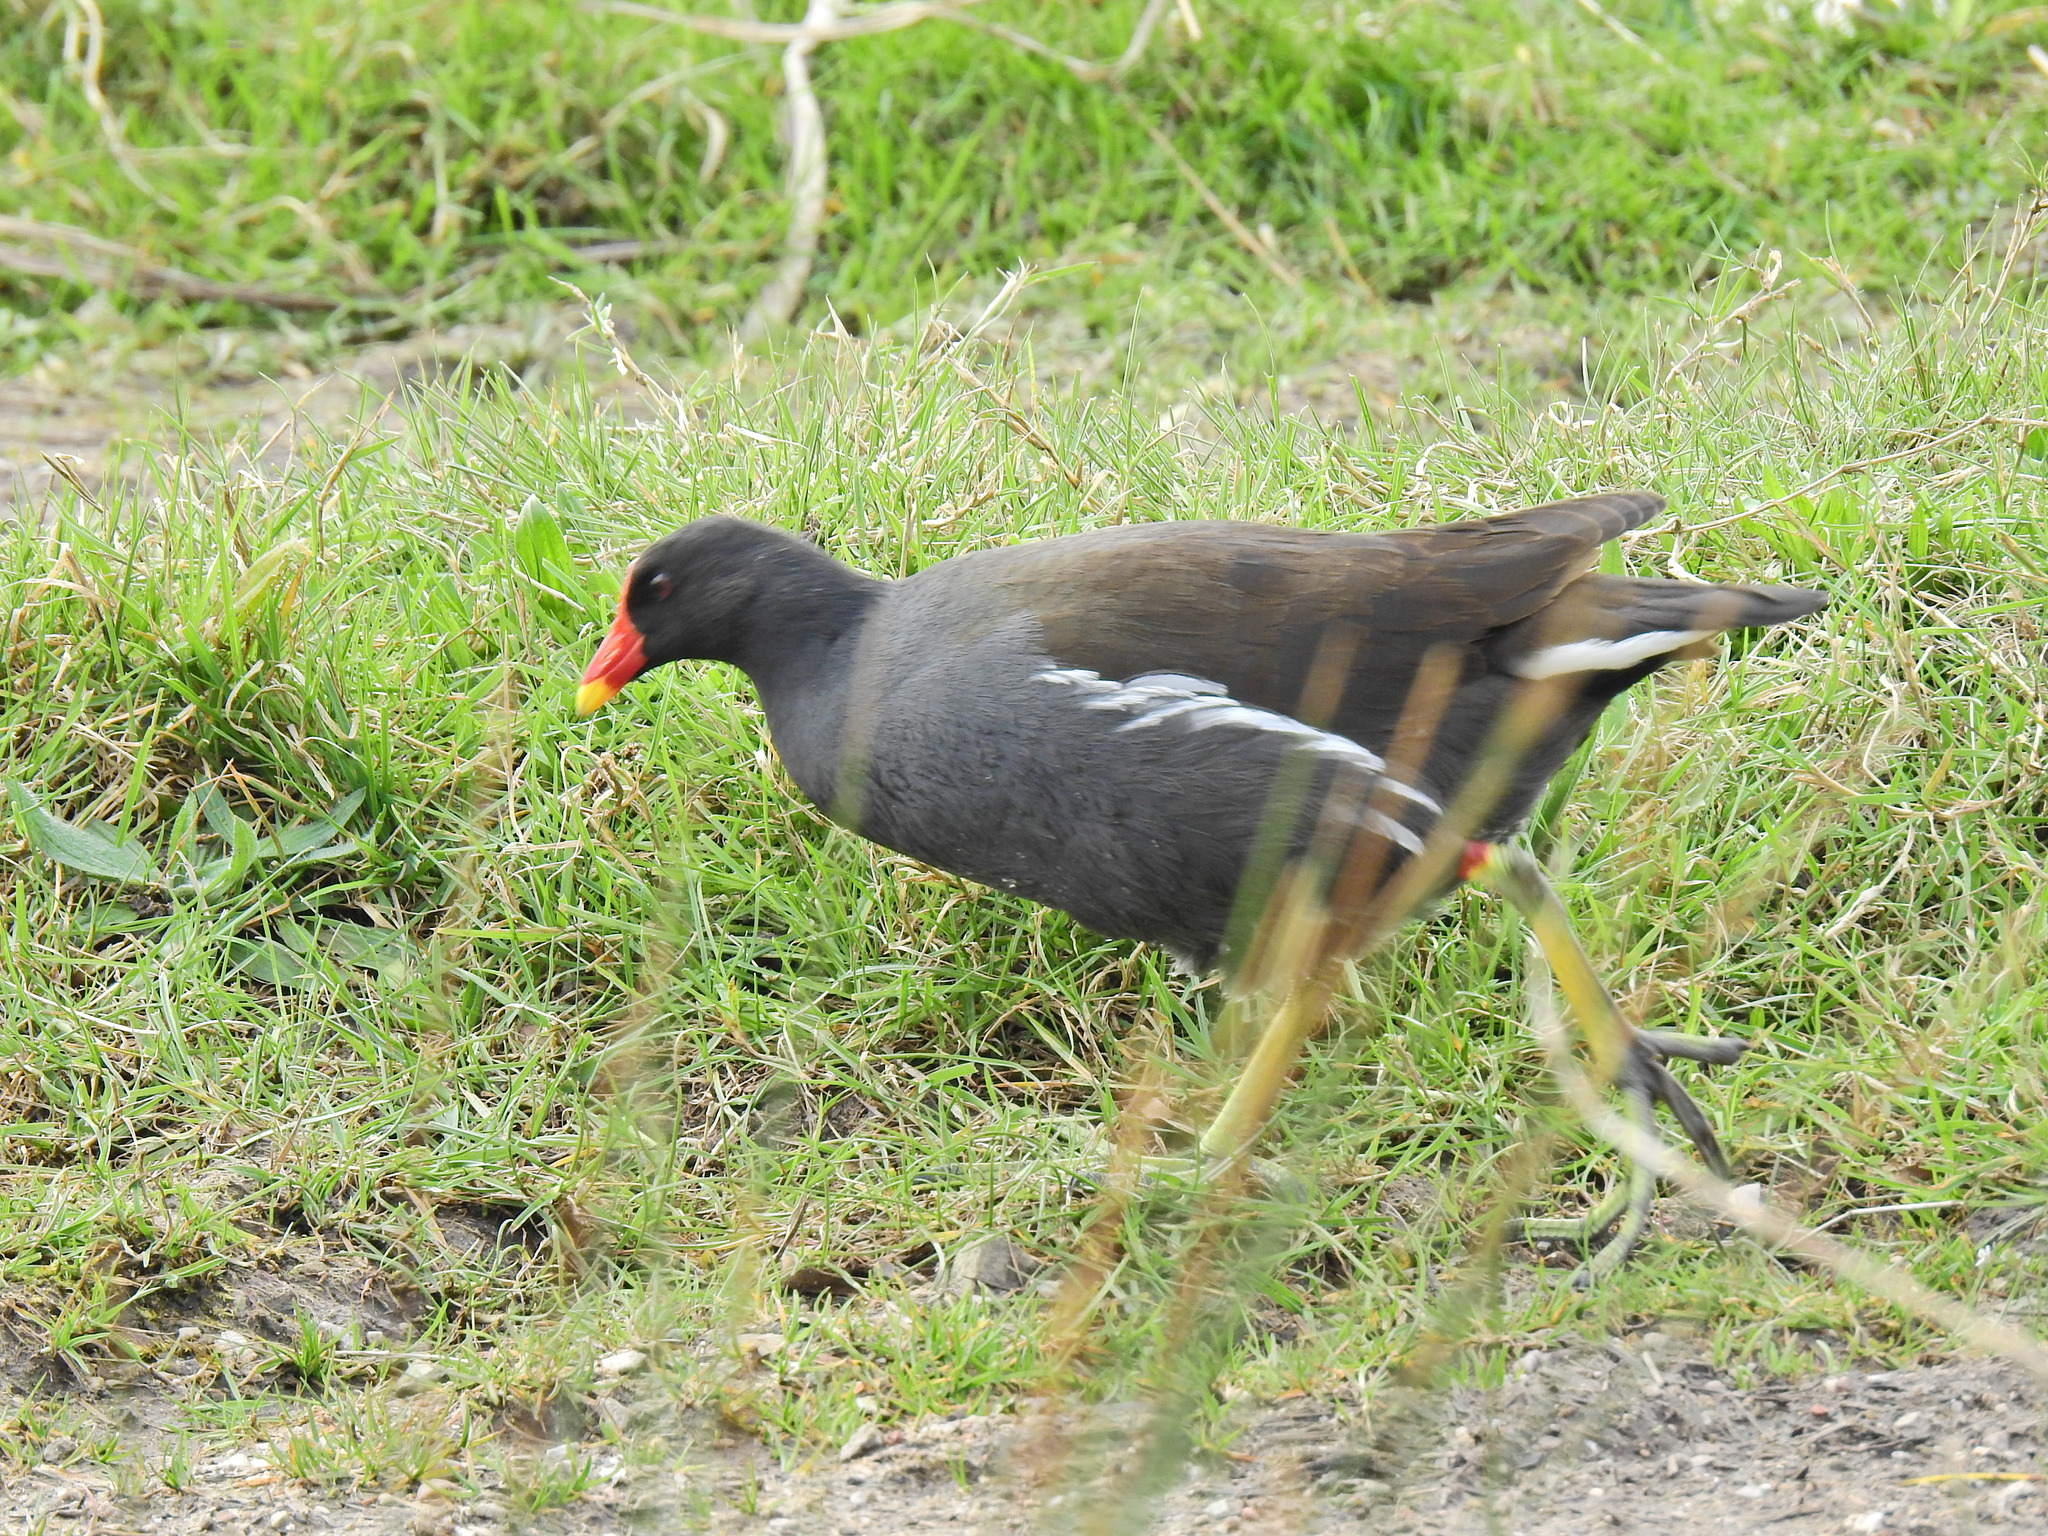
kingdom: Animalia
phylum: Chordata
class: Aves
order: Gruiformes
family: Rallidae
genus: Gallinula
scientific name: Gallinula chloropus
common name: Common moorhen
